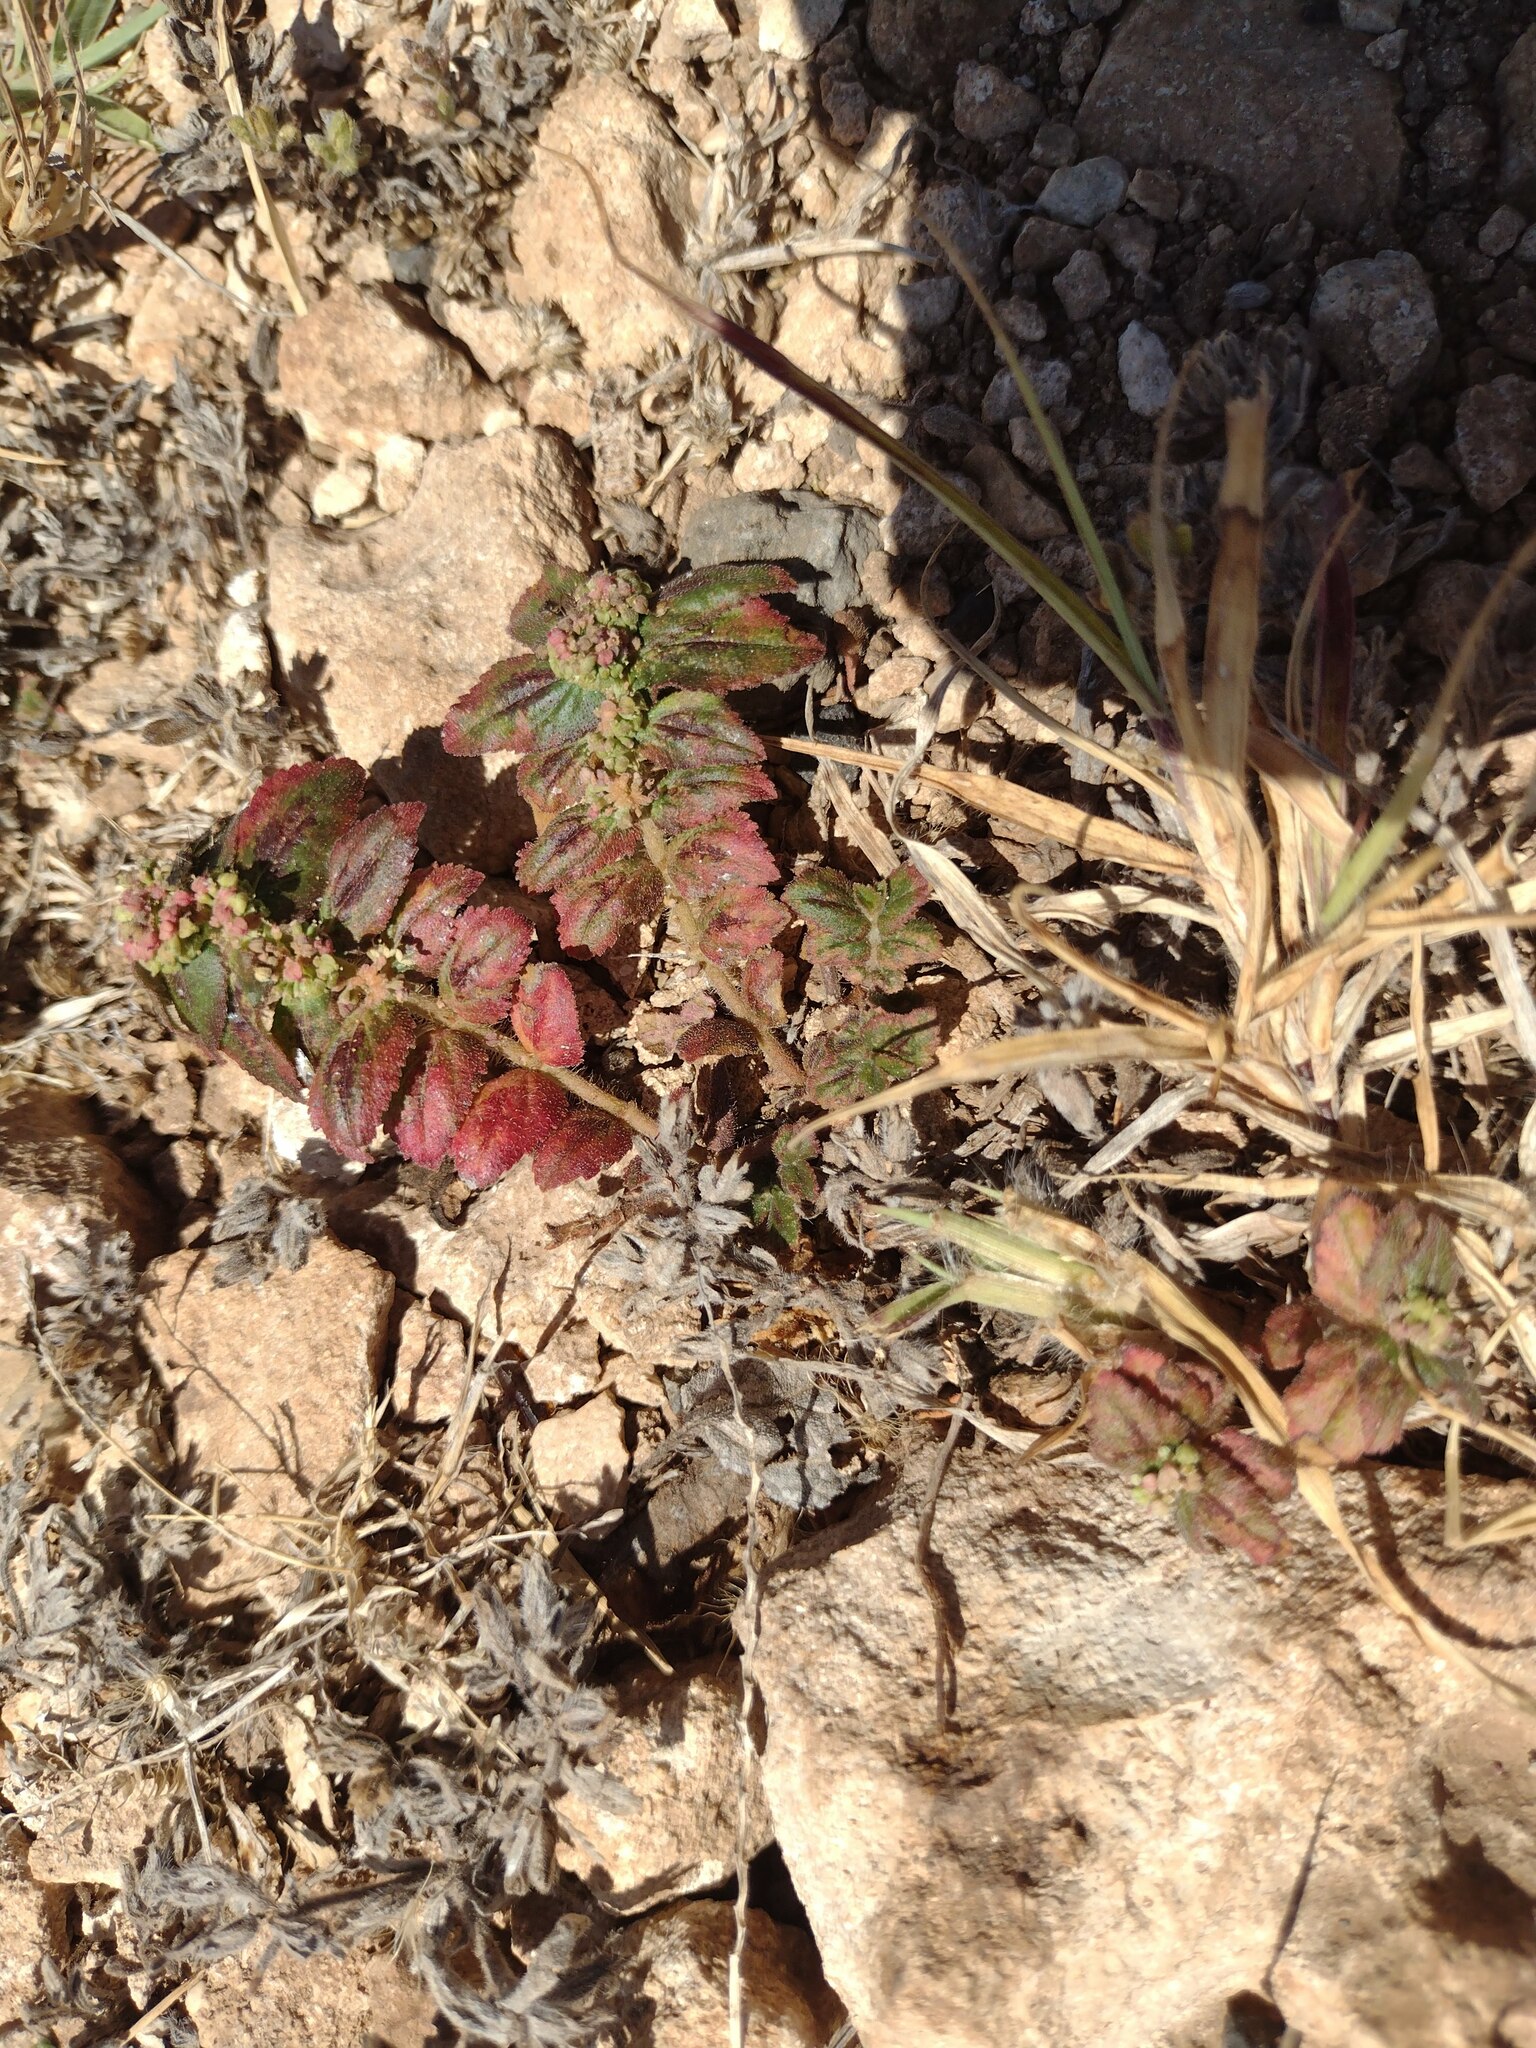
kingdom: Plantae
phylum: Tracheophyta
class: Magnoliopsida
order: Malpighiales
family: Euphorbiaceae
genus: Euphorbia
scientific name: Euphorbia hirta
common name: Pillpod sandmat
